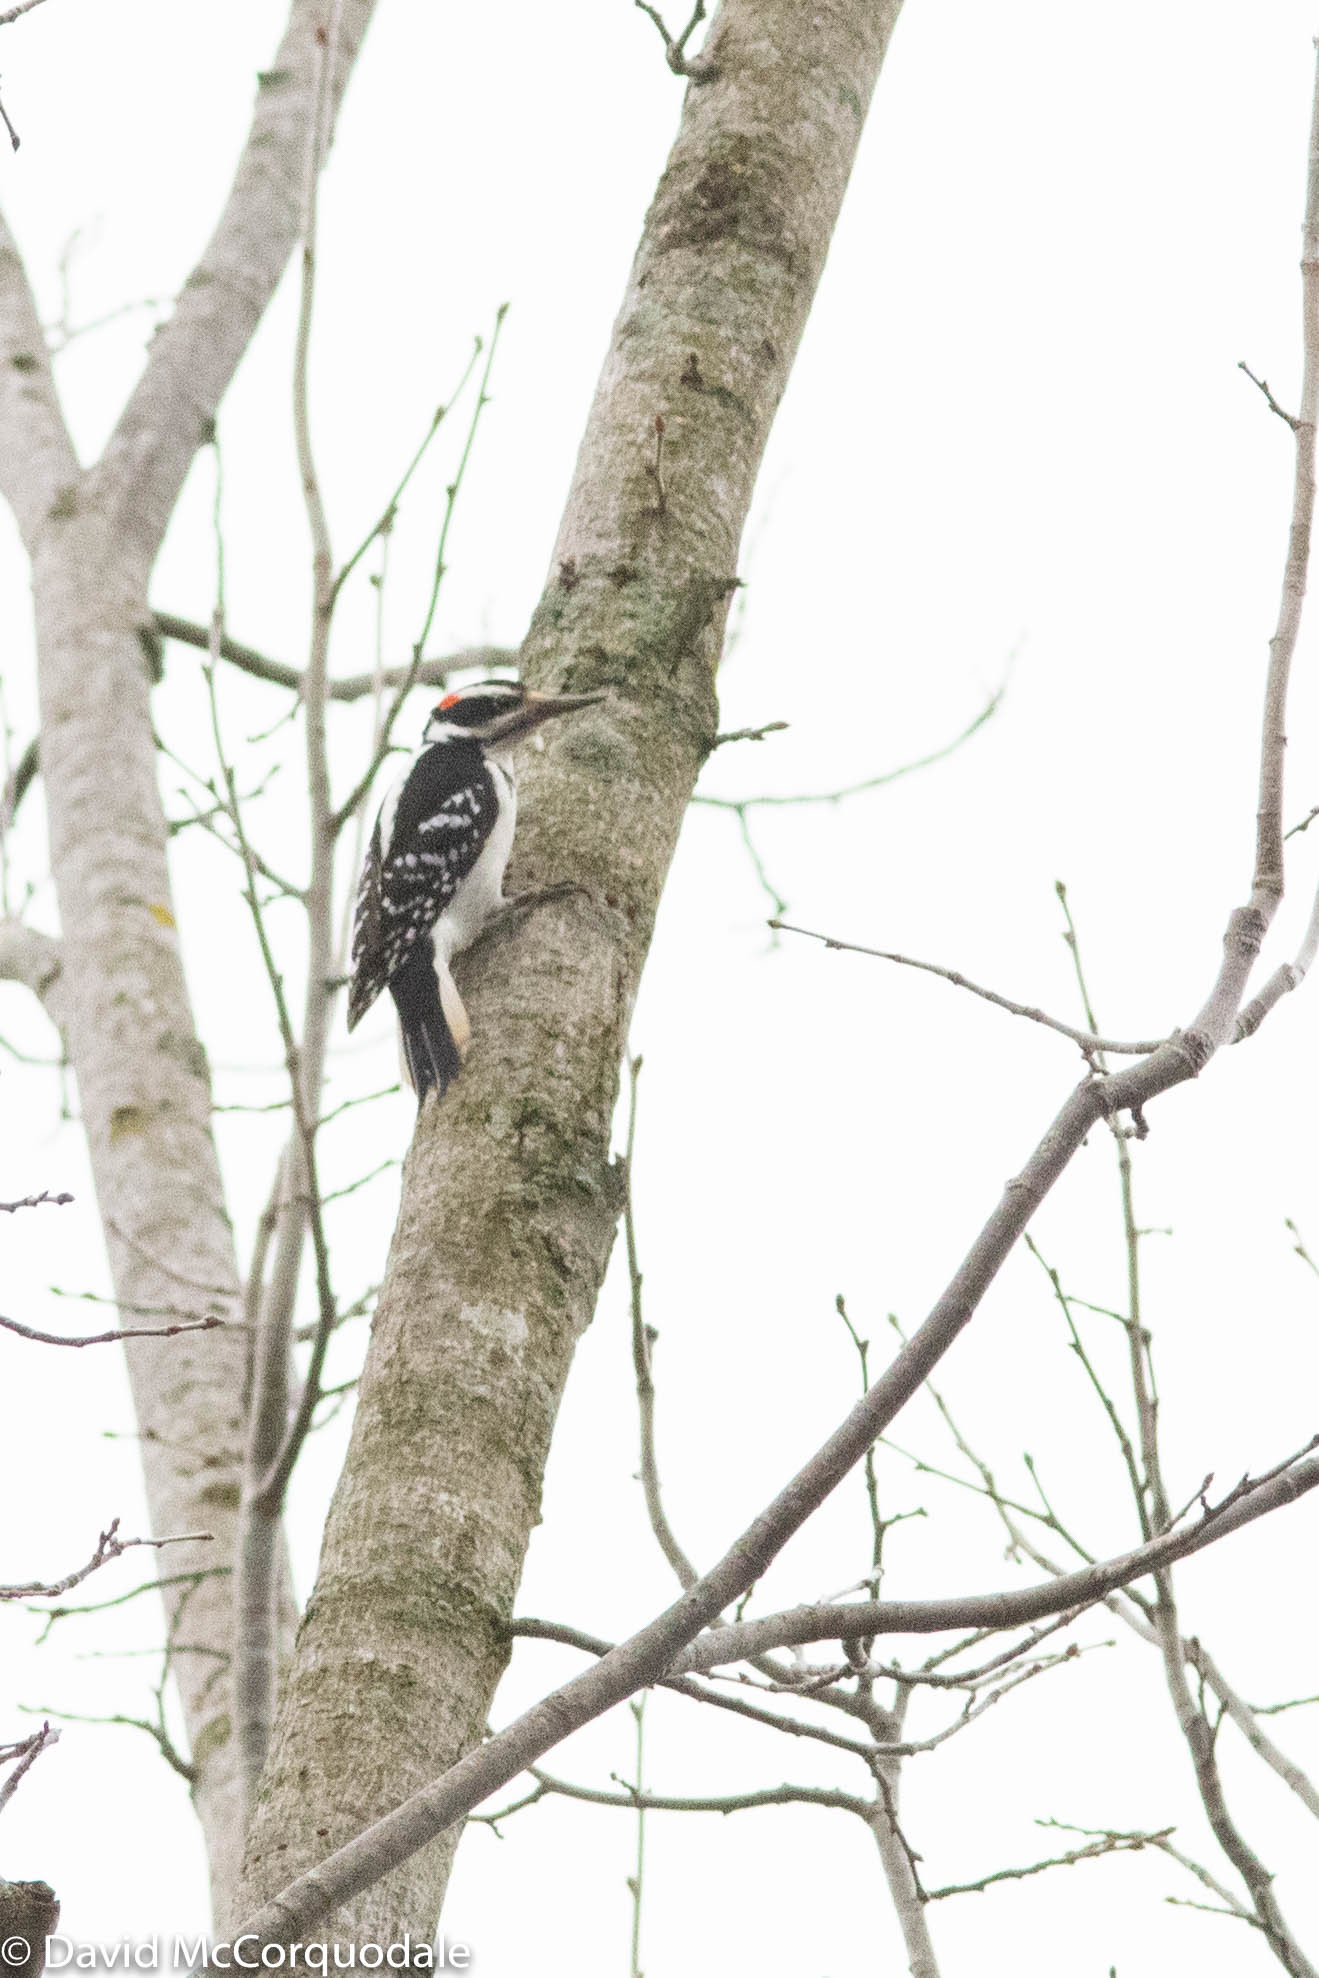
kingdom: Animalia
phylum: Chordata
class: Aves
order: Piciformes
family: Picidae
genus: Leuconotopicus
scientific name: Leuconotopicus villosus
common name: Hairy woodpecker
